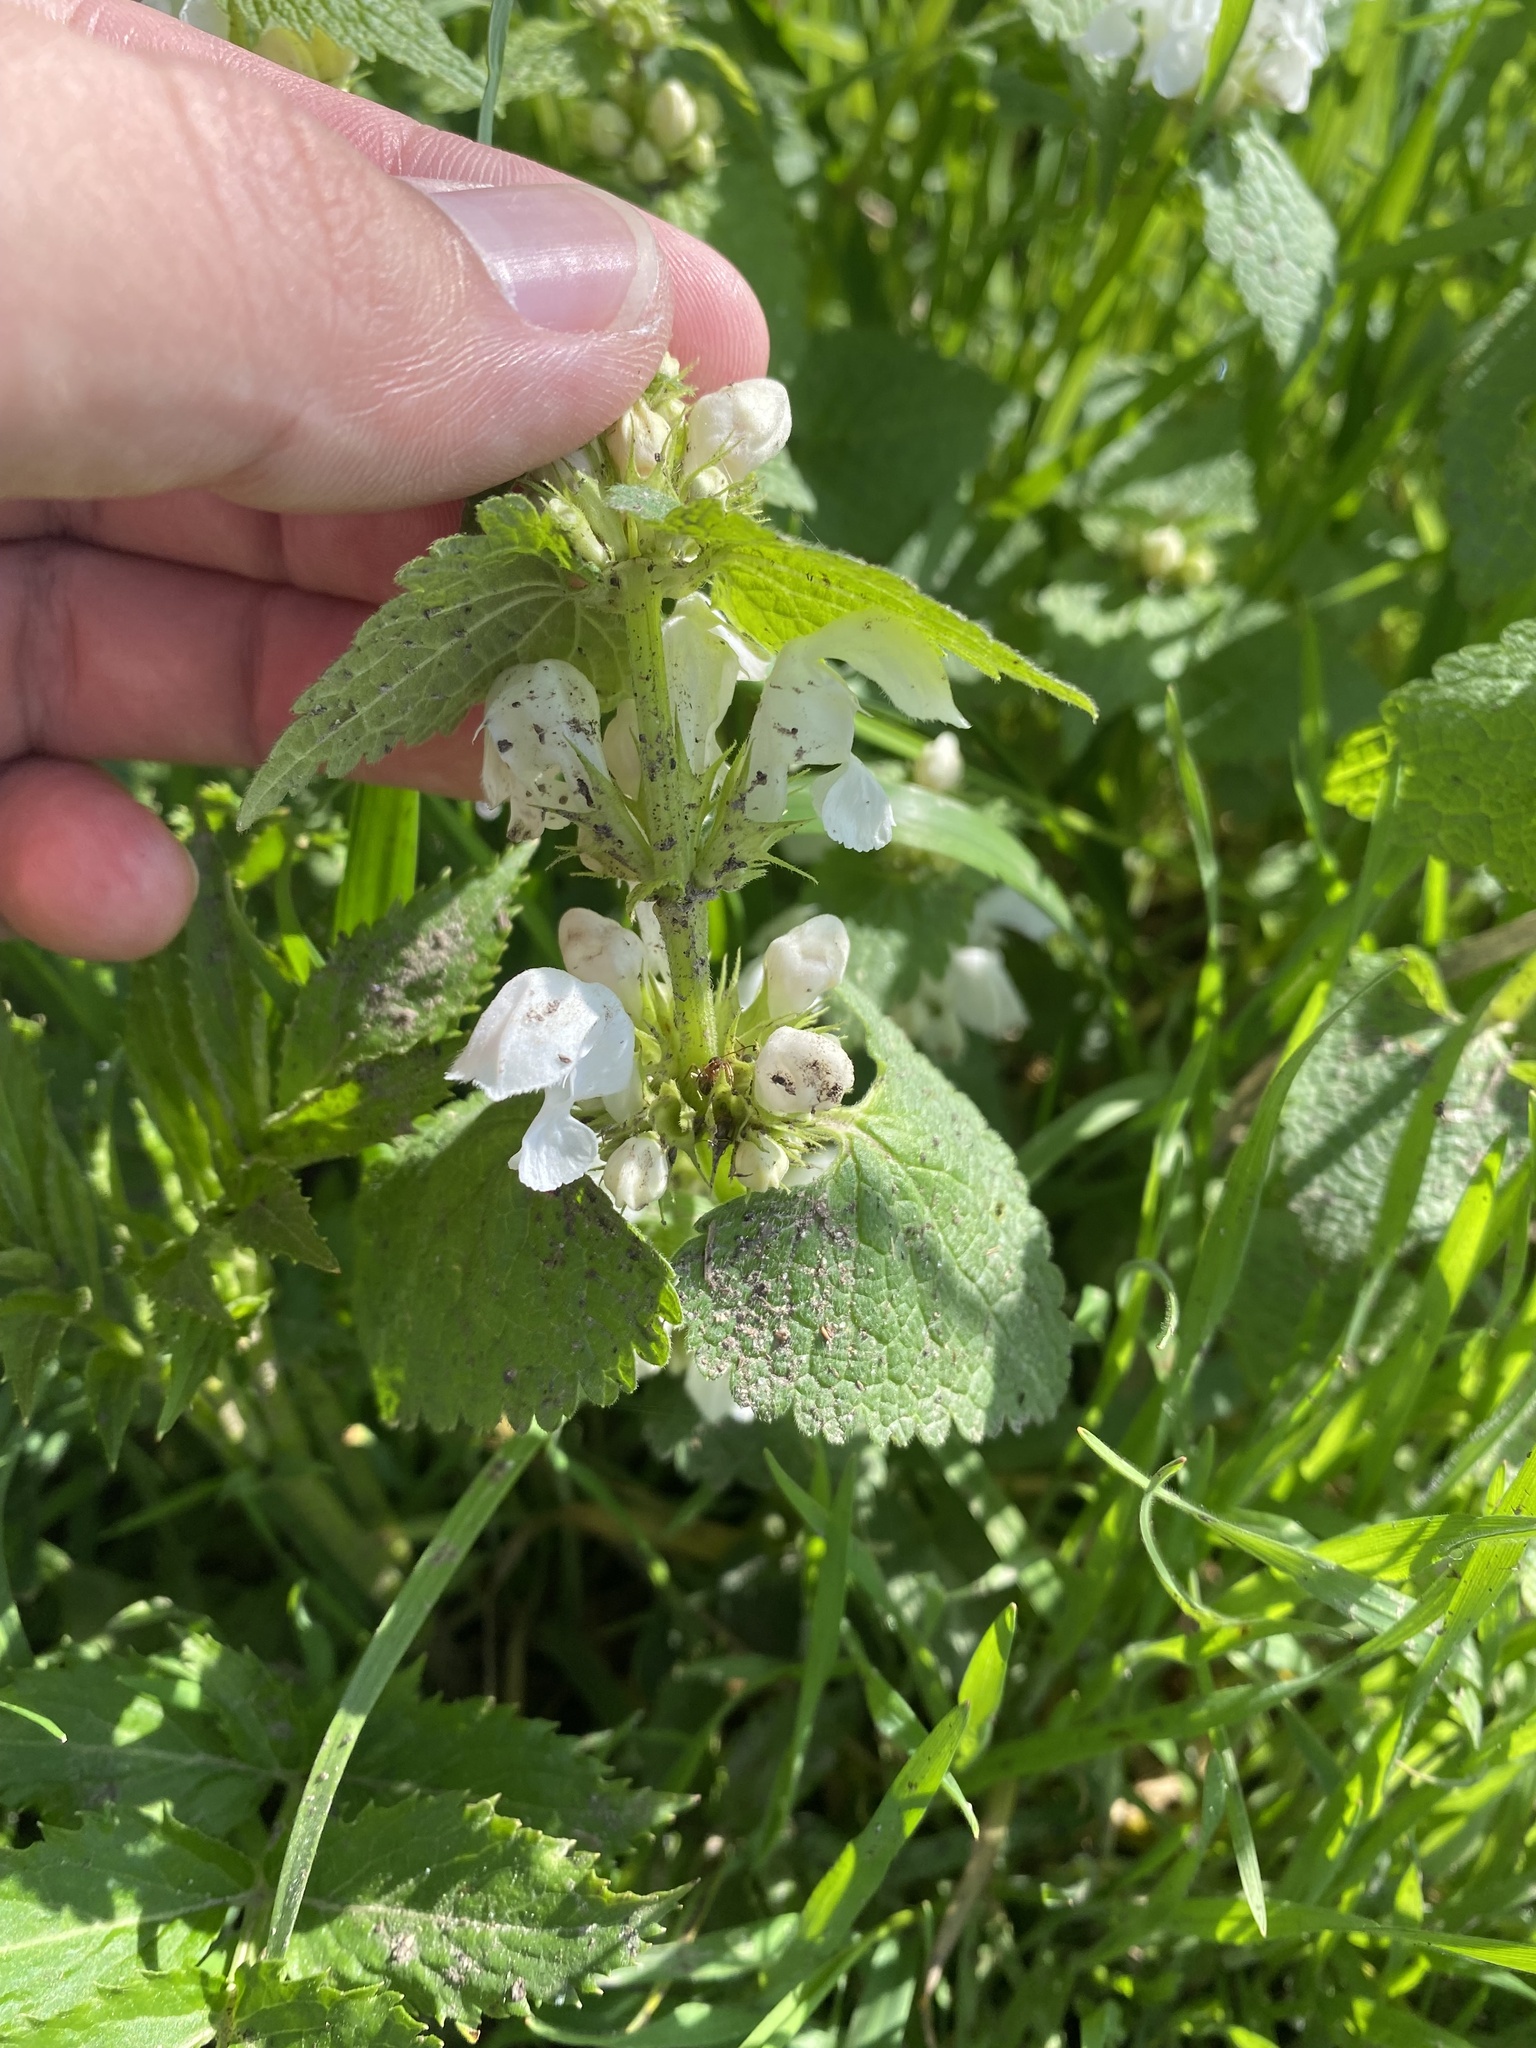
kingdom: Plantae
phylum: Tracheophyta
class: Magnoliopsida
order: Lamiales
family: Lamiaceae
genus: Lamium
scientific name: Lamium album
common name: White dead-nettle
